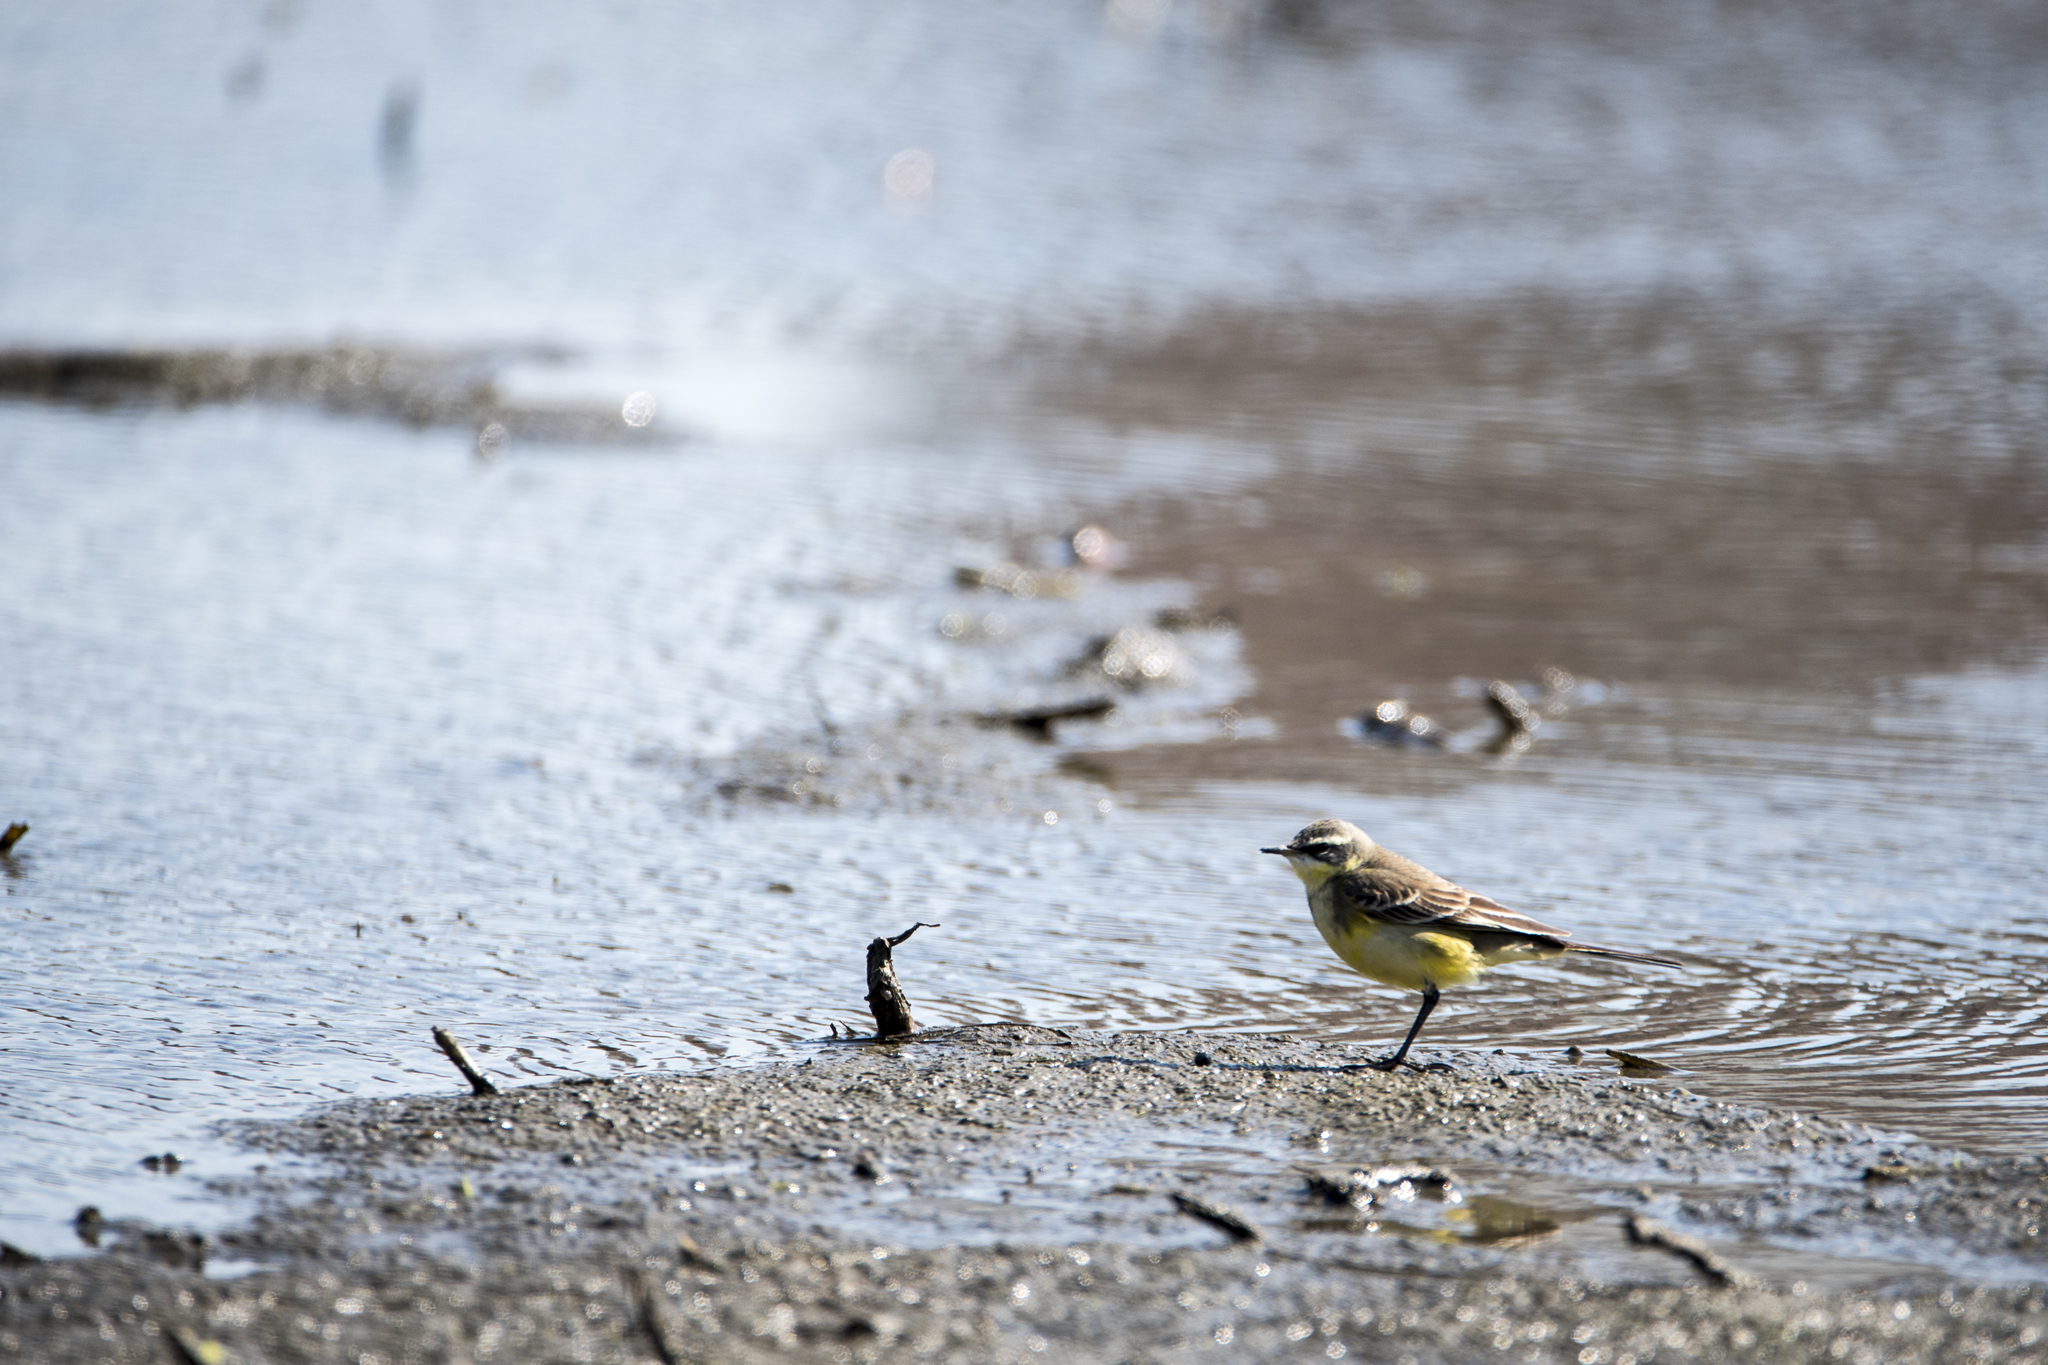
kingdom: Animalia
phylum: Chordata
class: Aves
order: Passeriformes
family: Motacillidae
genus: Motacilla
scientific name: Motacilla tschutschensis
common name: Eastern yellow wagtail
